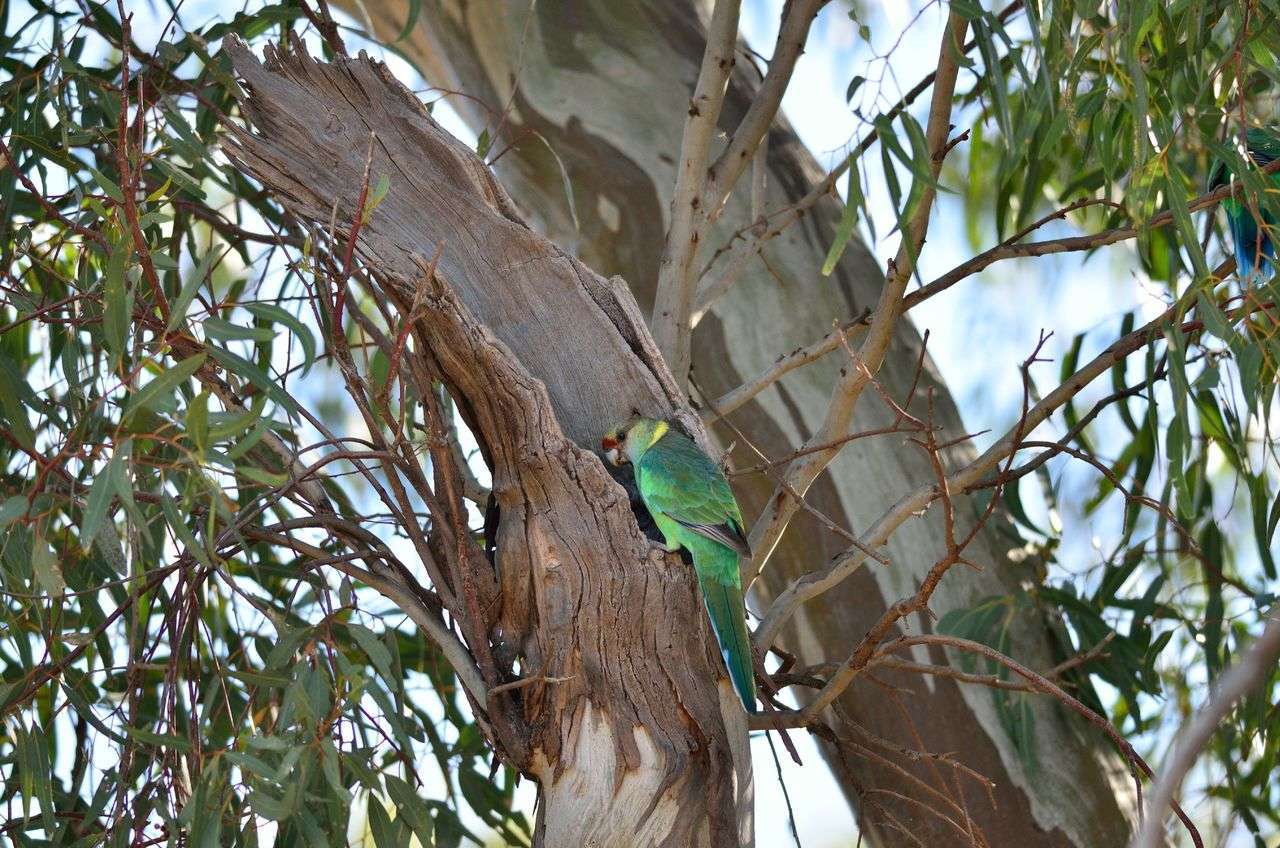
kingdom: Animalia
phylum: Chordata
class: Aves
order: Psittaciformes
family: Psittacidae
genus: Barnardius
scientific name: Barnardius zonarius
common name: Australian ringneck
